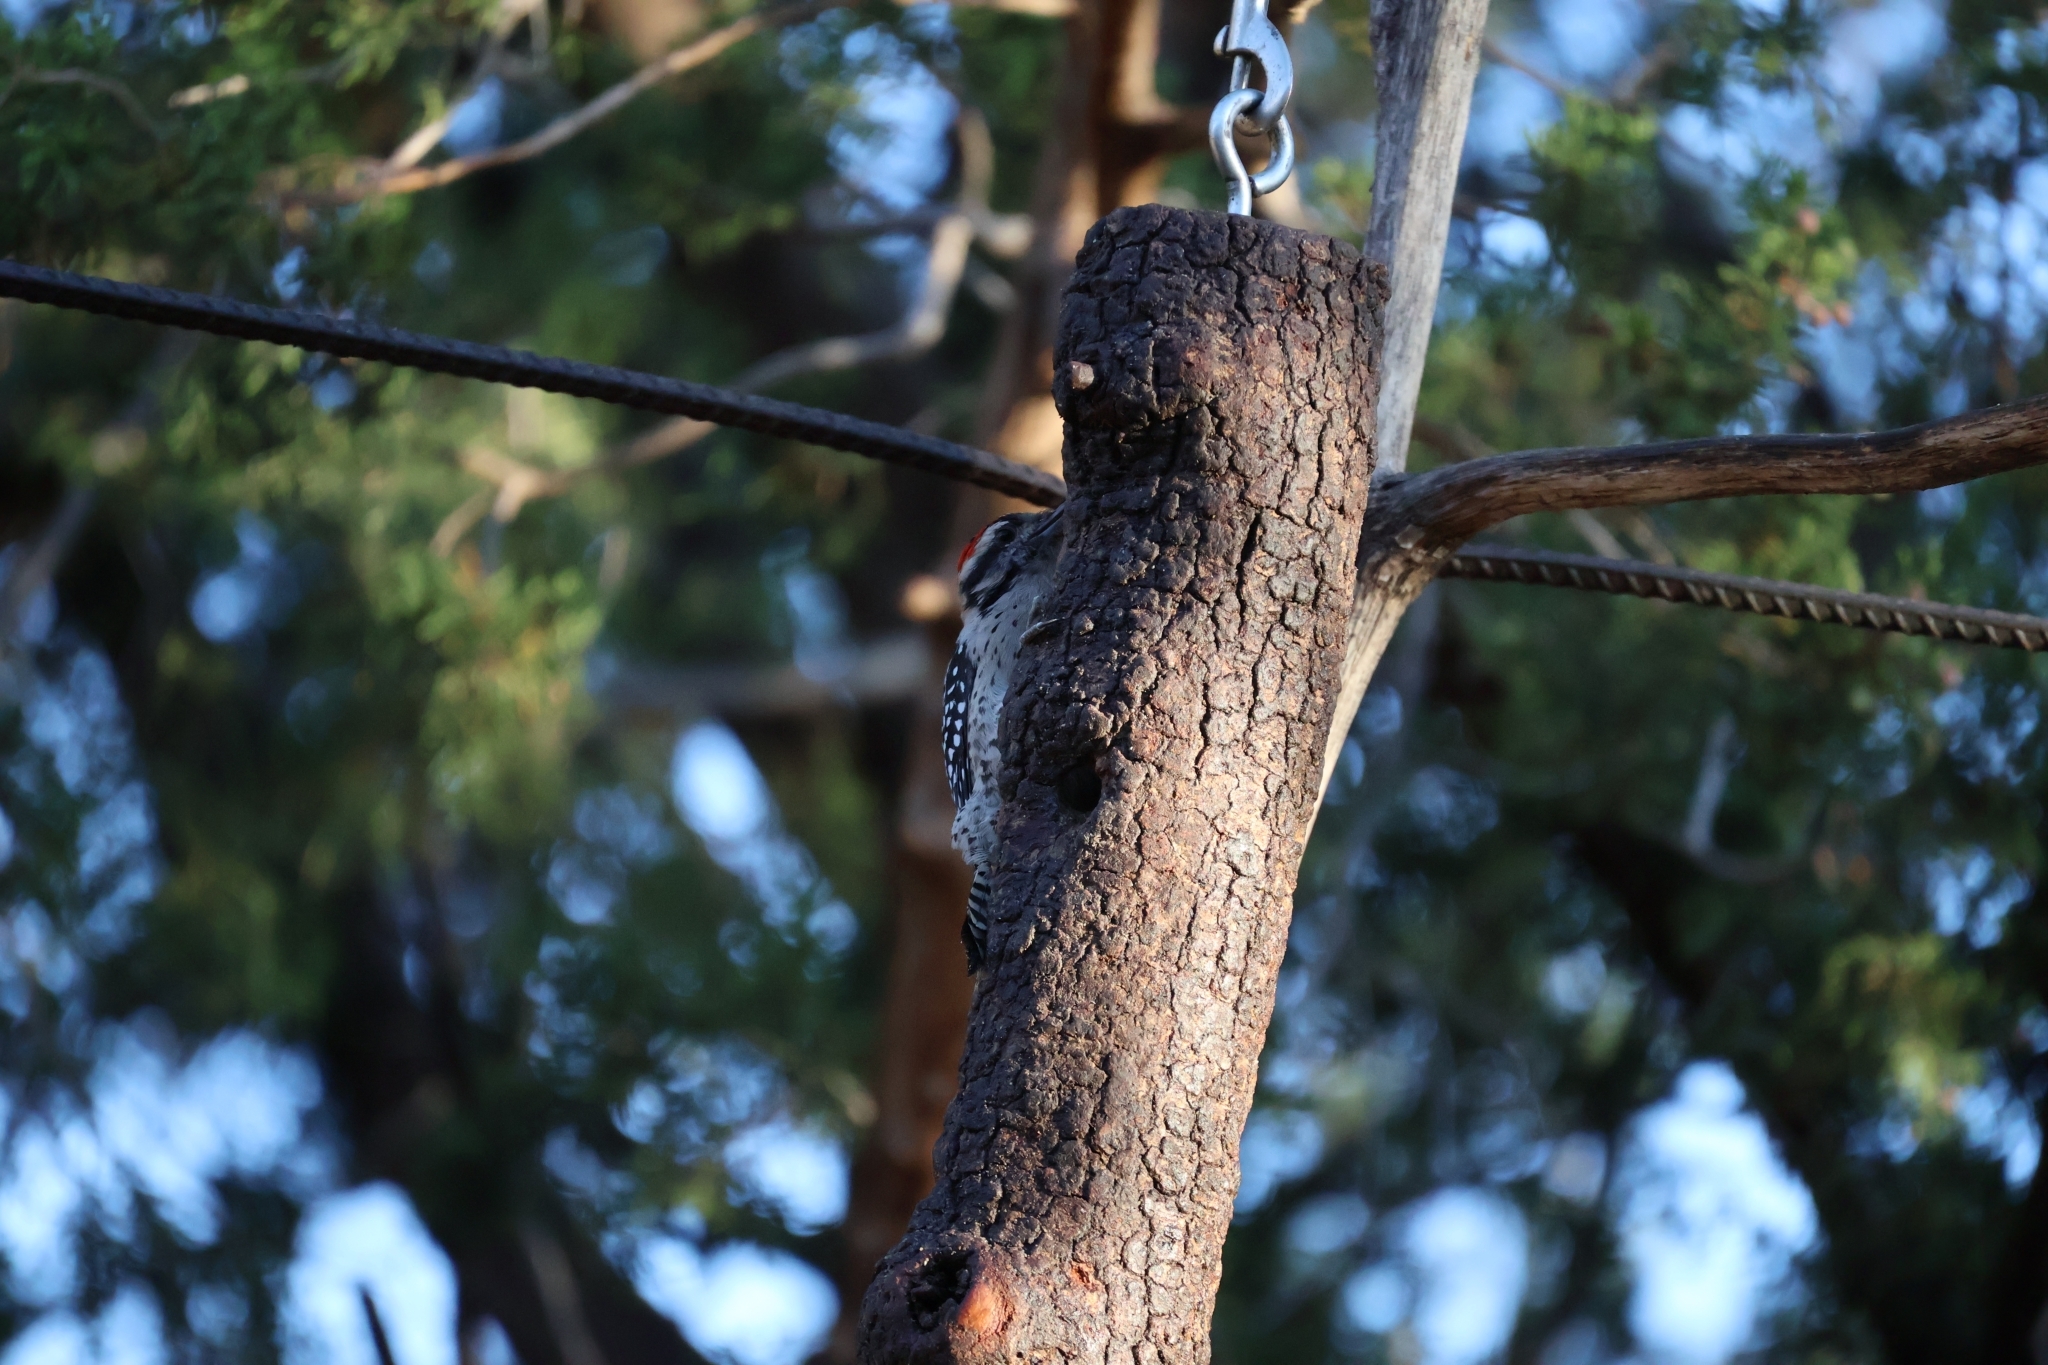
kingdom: Animalia
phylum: Chordata
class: Aves
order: Piciformes
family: Picidae
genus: Dryobates
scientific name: Dryobates scalaris
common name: Ladder-backed woodpecker
